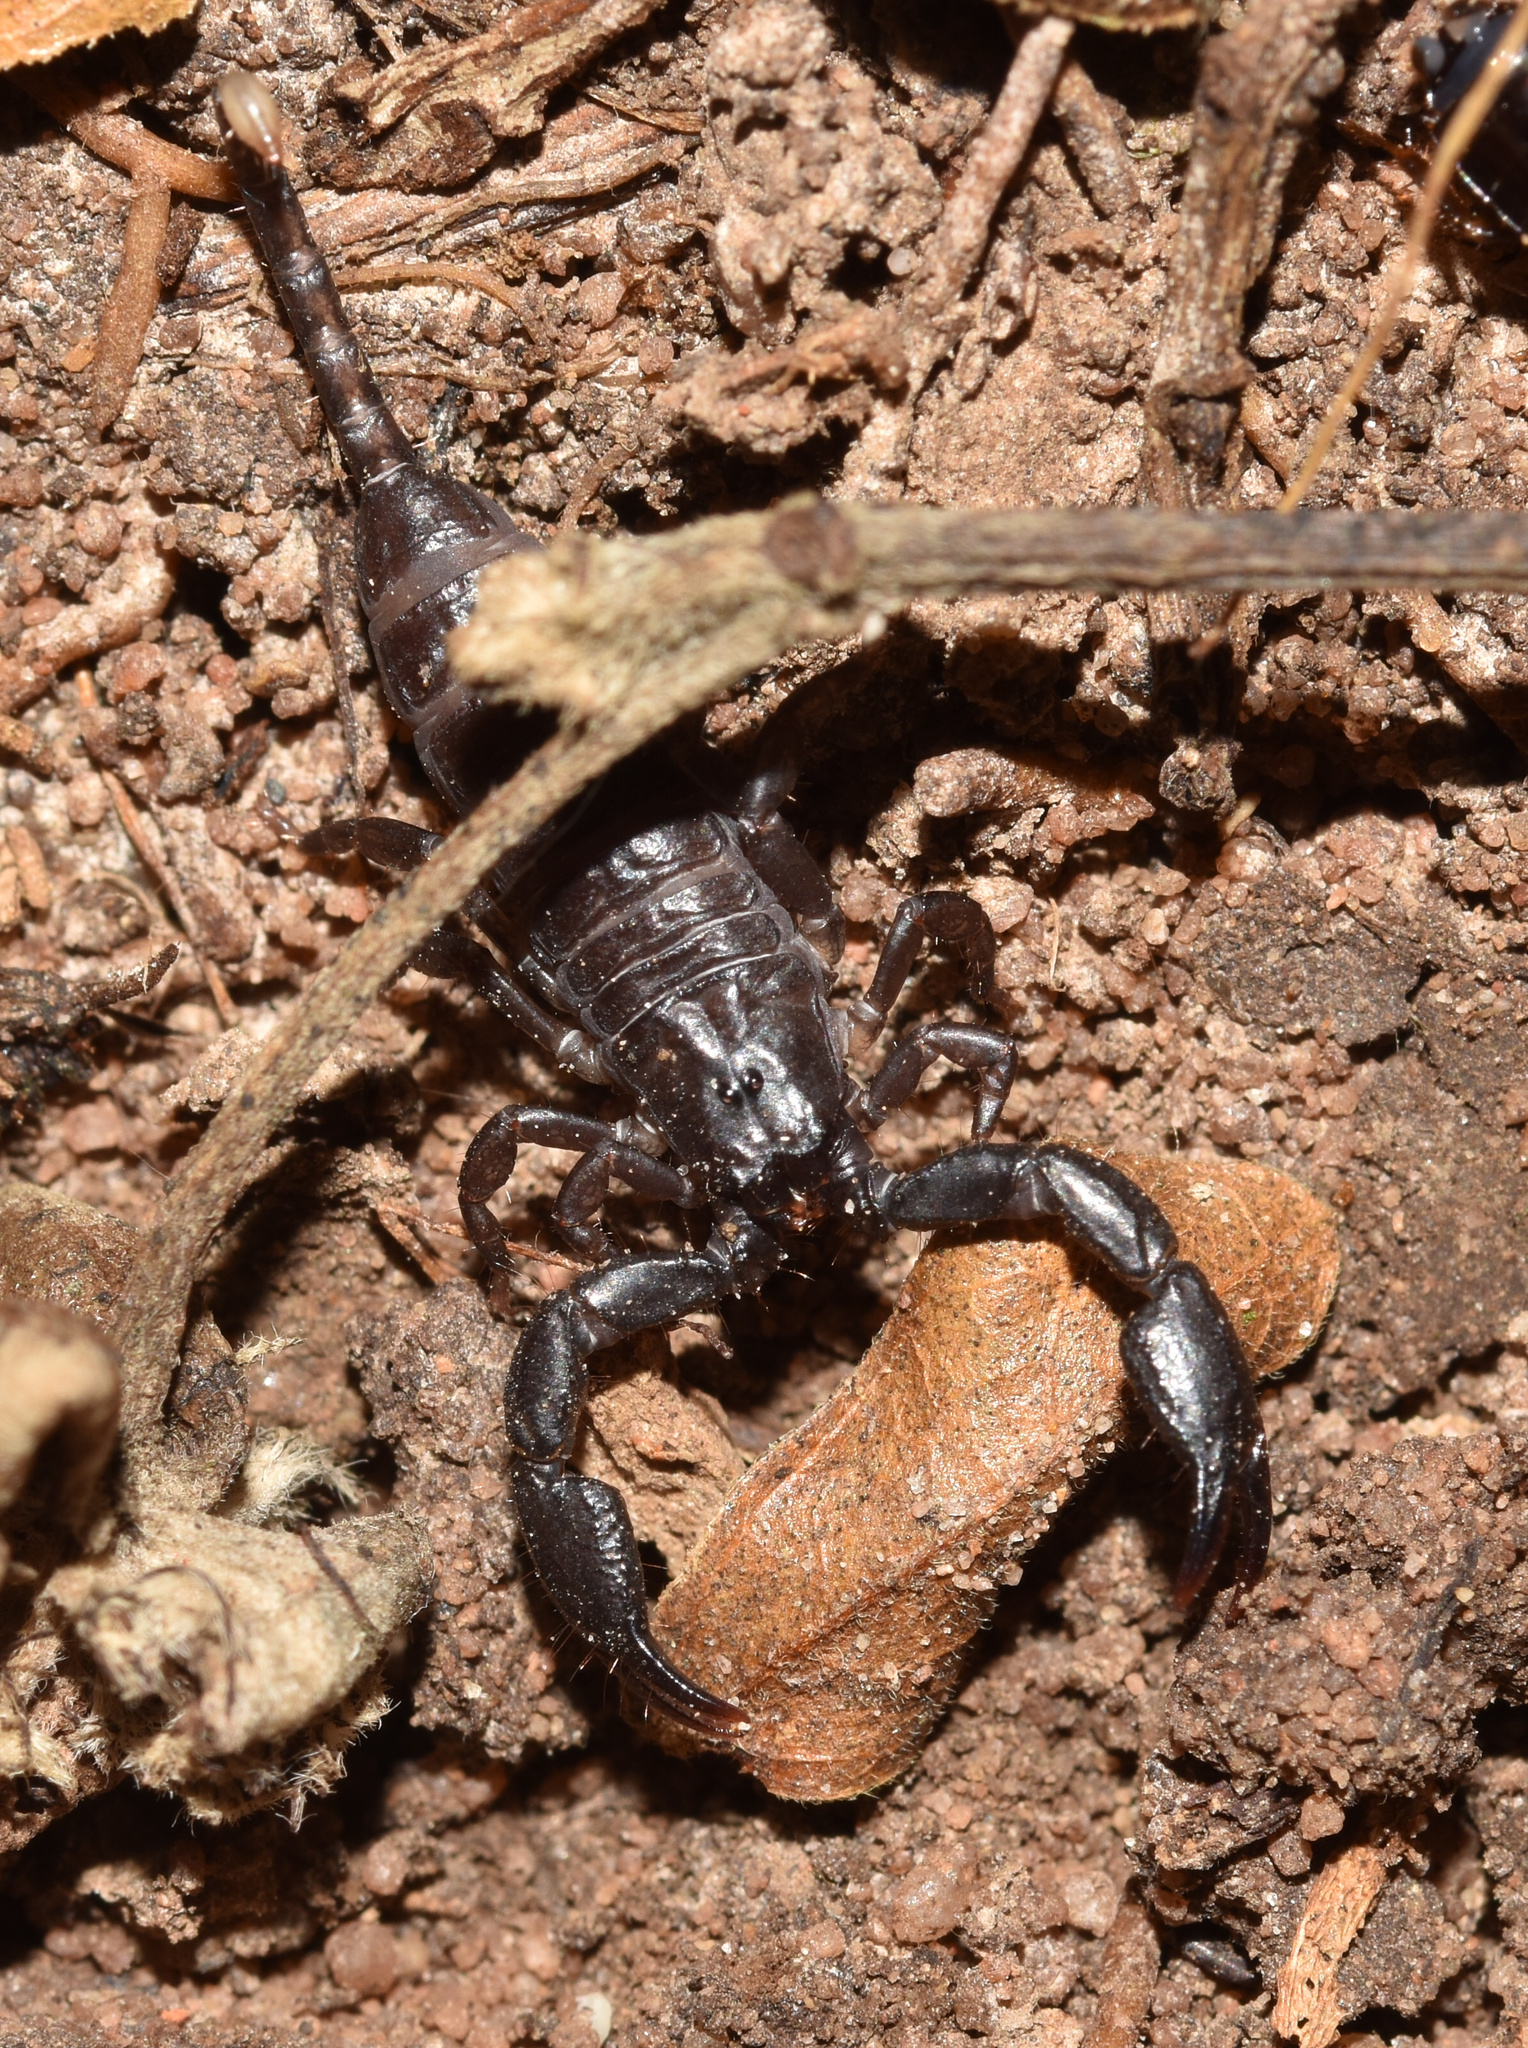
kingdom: Animalia
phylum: Arthropoda
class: Arachnida
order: Scorpiones
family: Hormuridae
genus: Opisthacanthus
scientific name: Opisthacanthus validus
